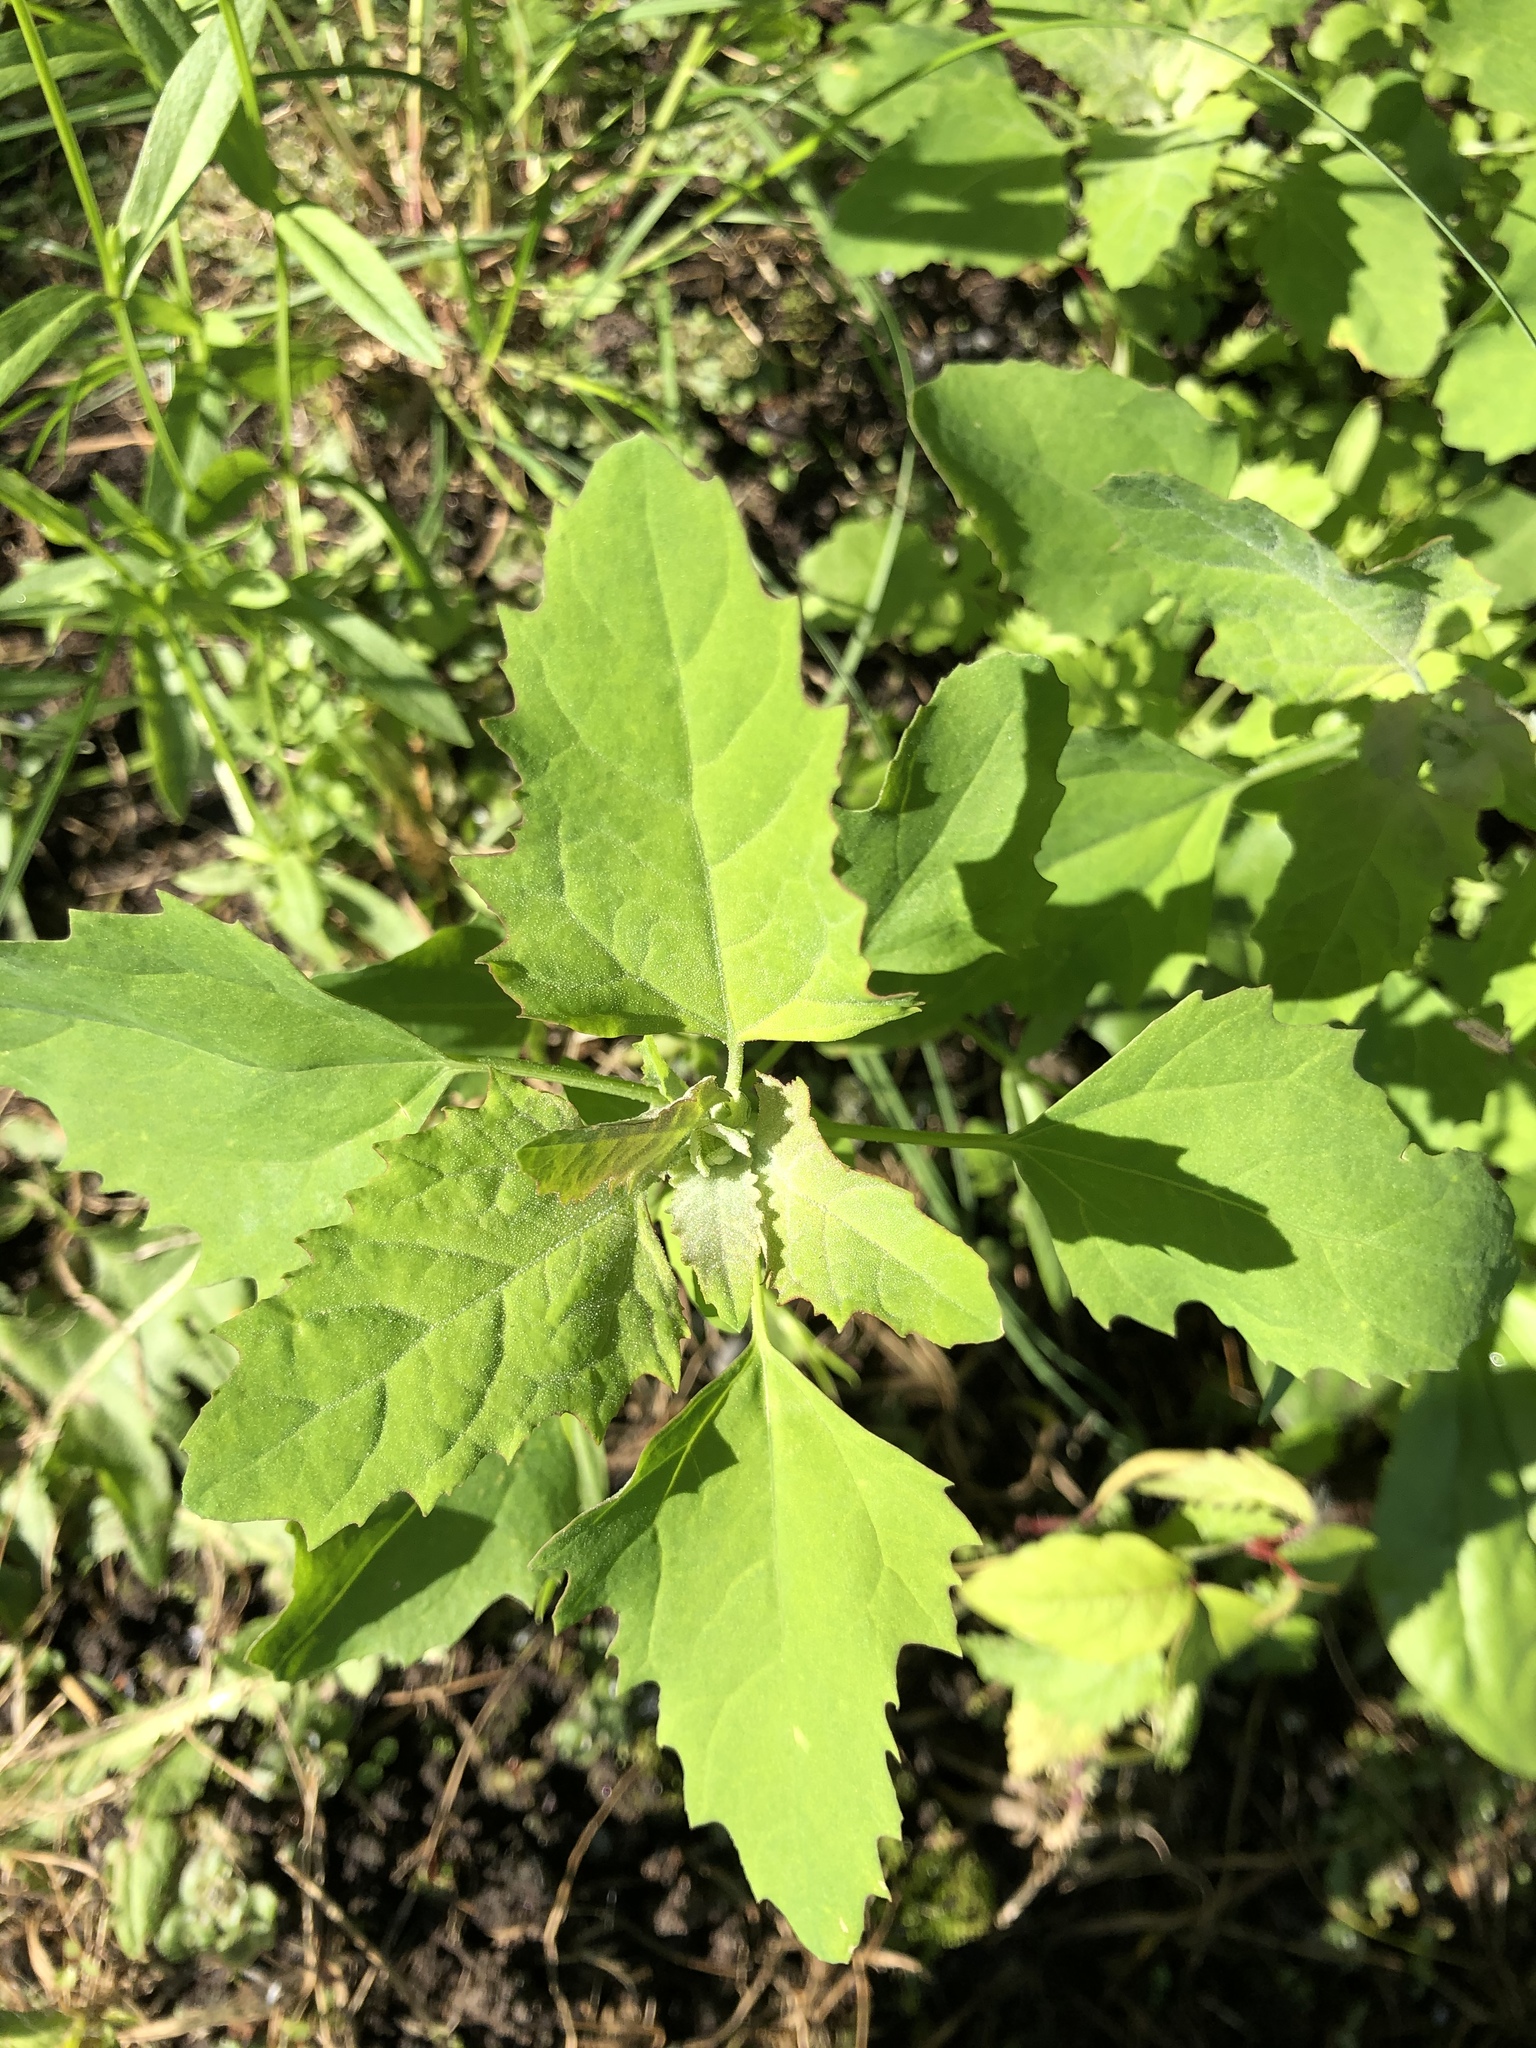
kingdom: Plantae
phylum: Tracheophyta
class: Magnoliopsida
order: Caryophyllales
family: Amaranthaceae
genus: Chenopodium
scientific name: Chenopodium album
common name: Fat-hen
